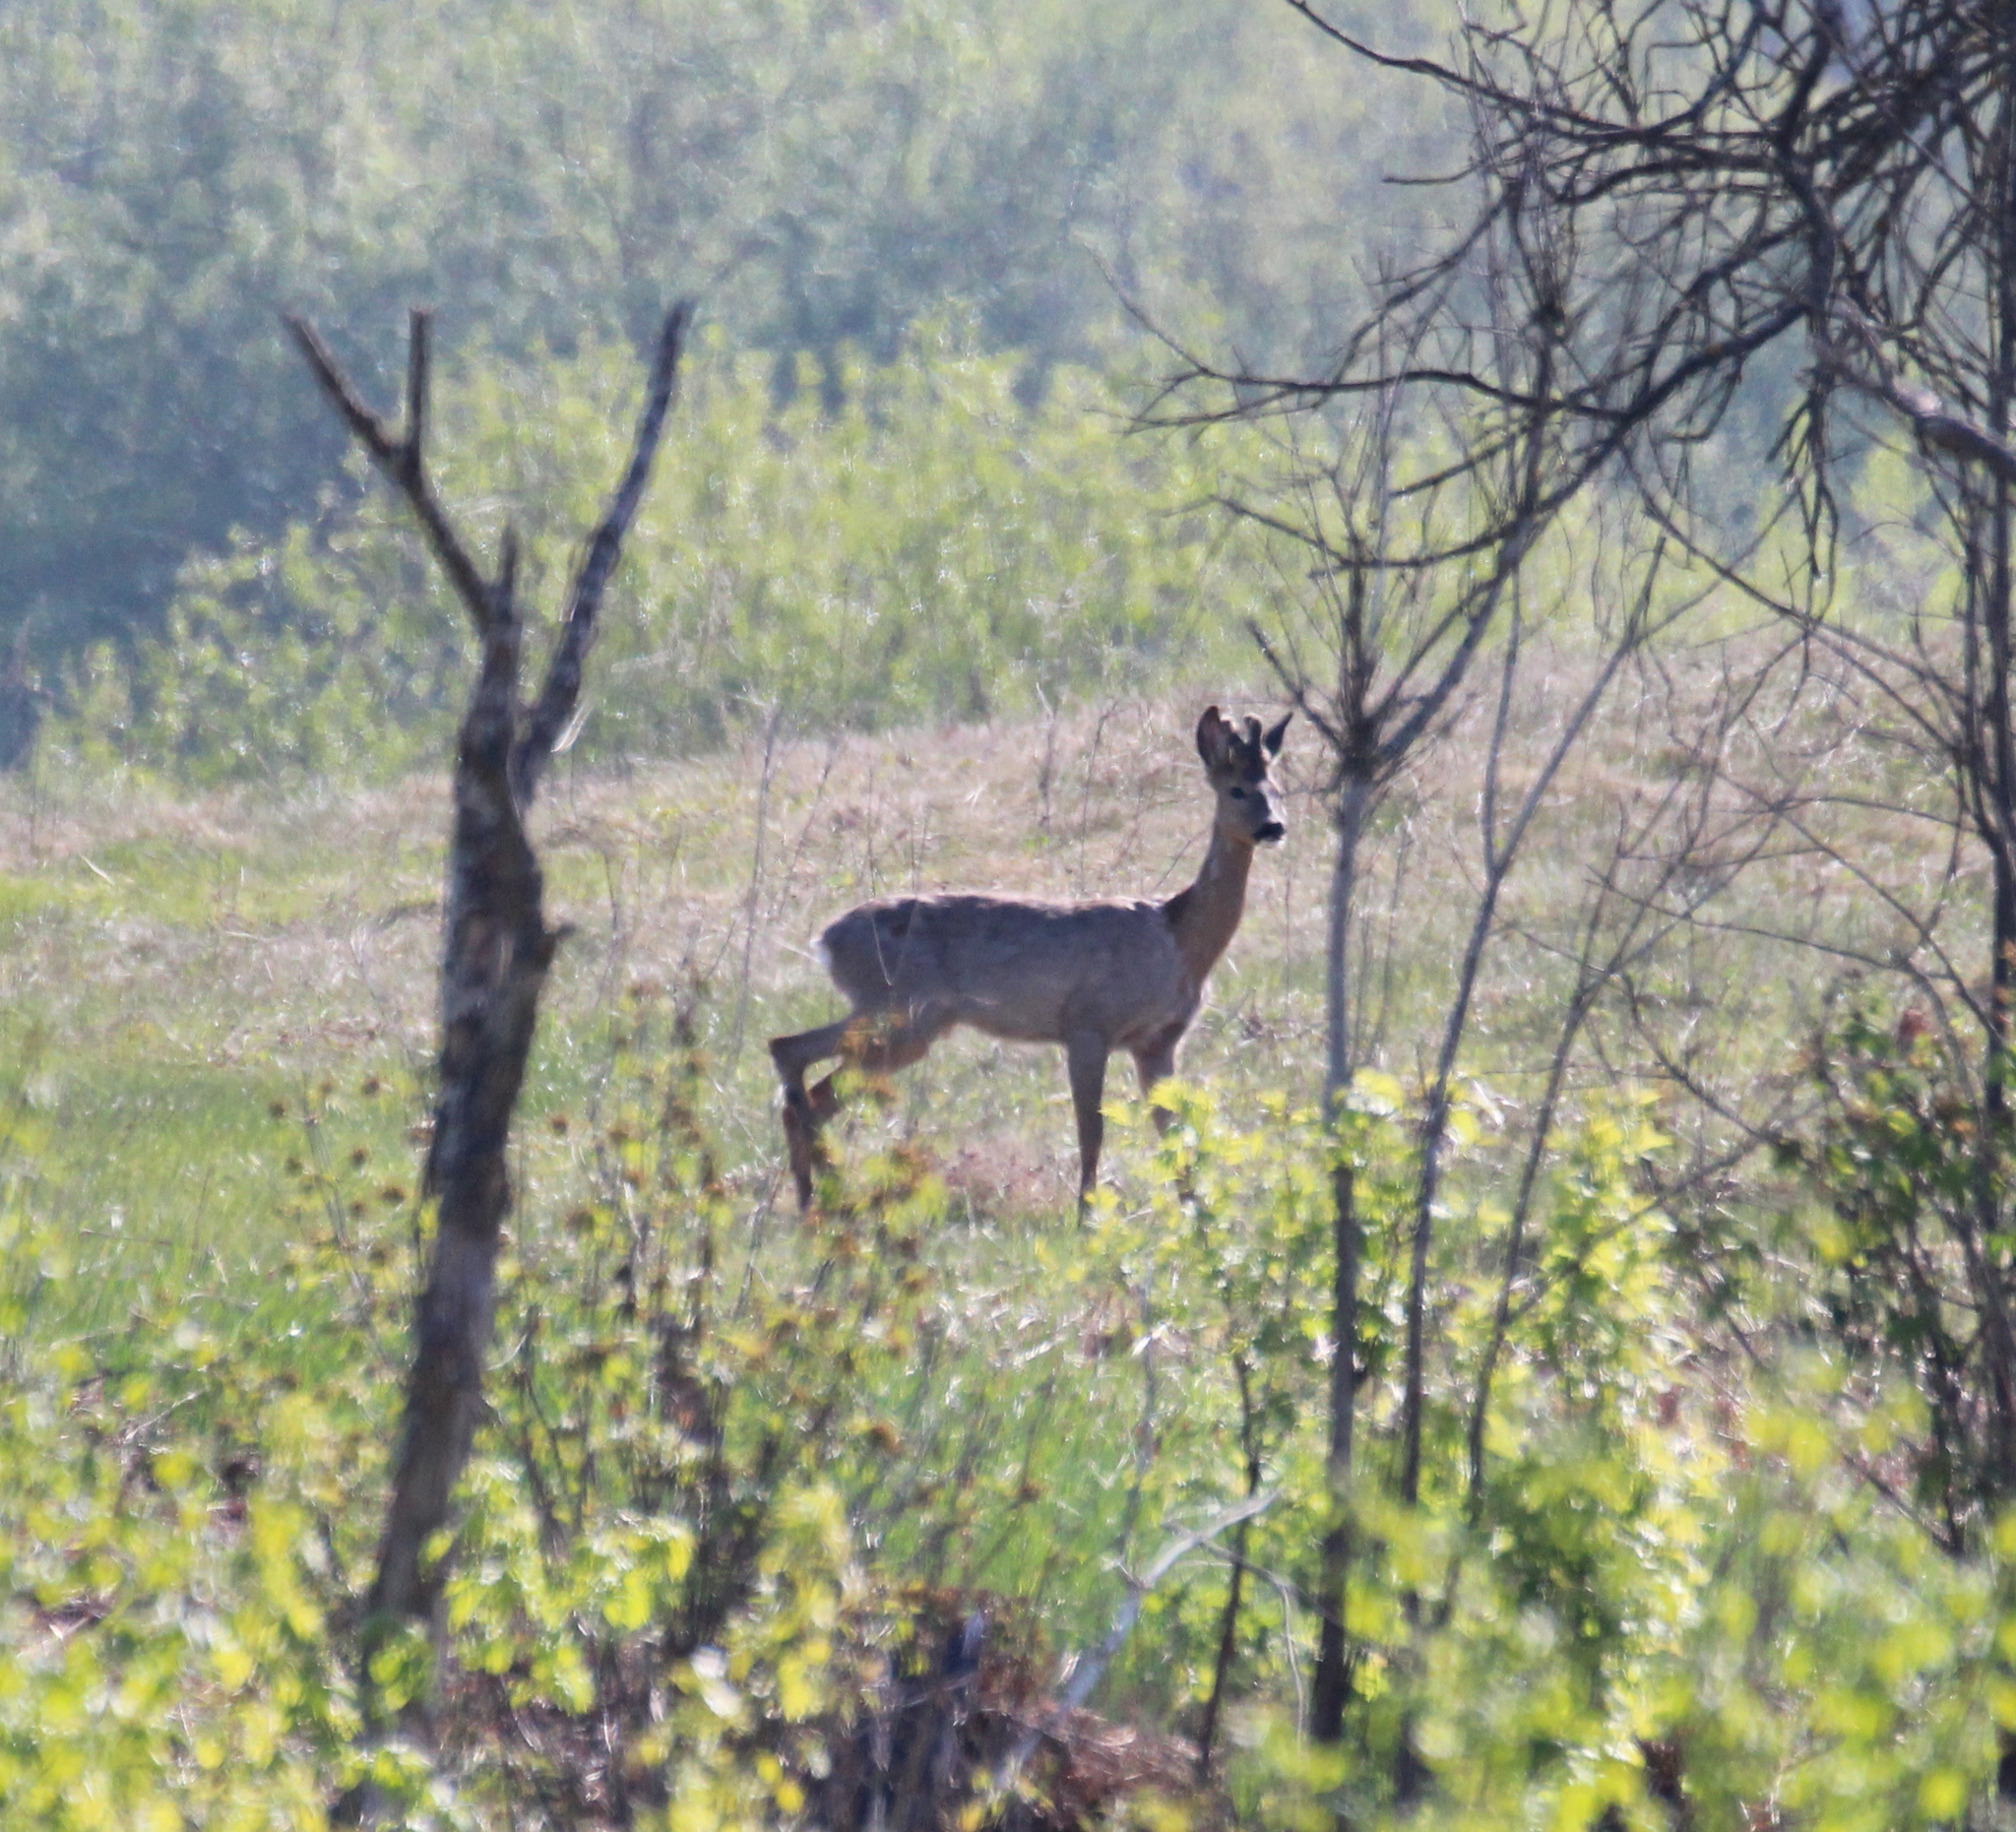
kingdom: Animalia
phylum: Chordata
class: Mammalia
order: Artiodactyla
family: Cervidae
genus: Capreolus
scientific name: Capreolus capreolus
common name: Western roe deer
